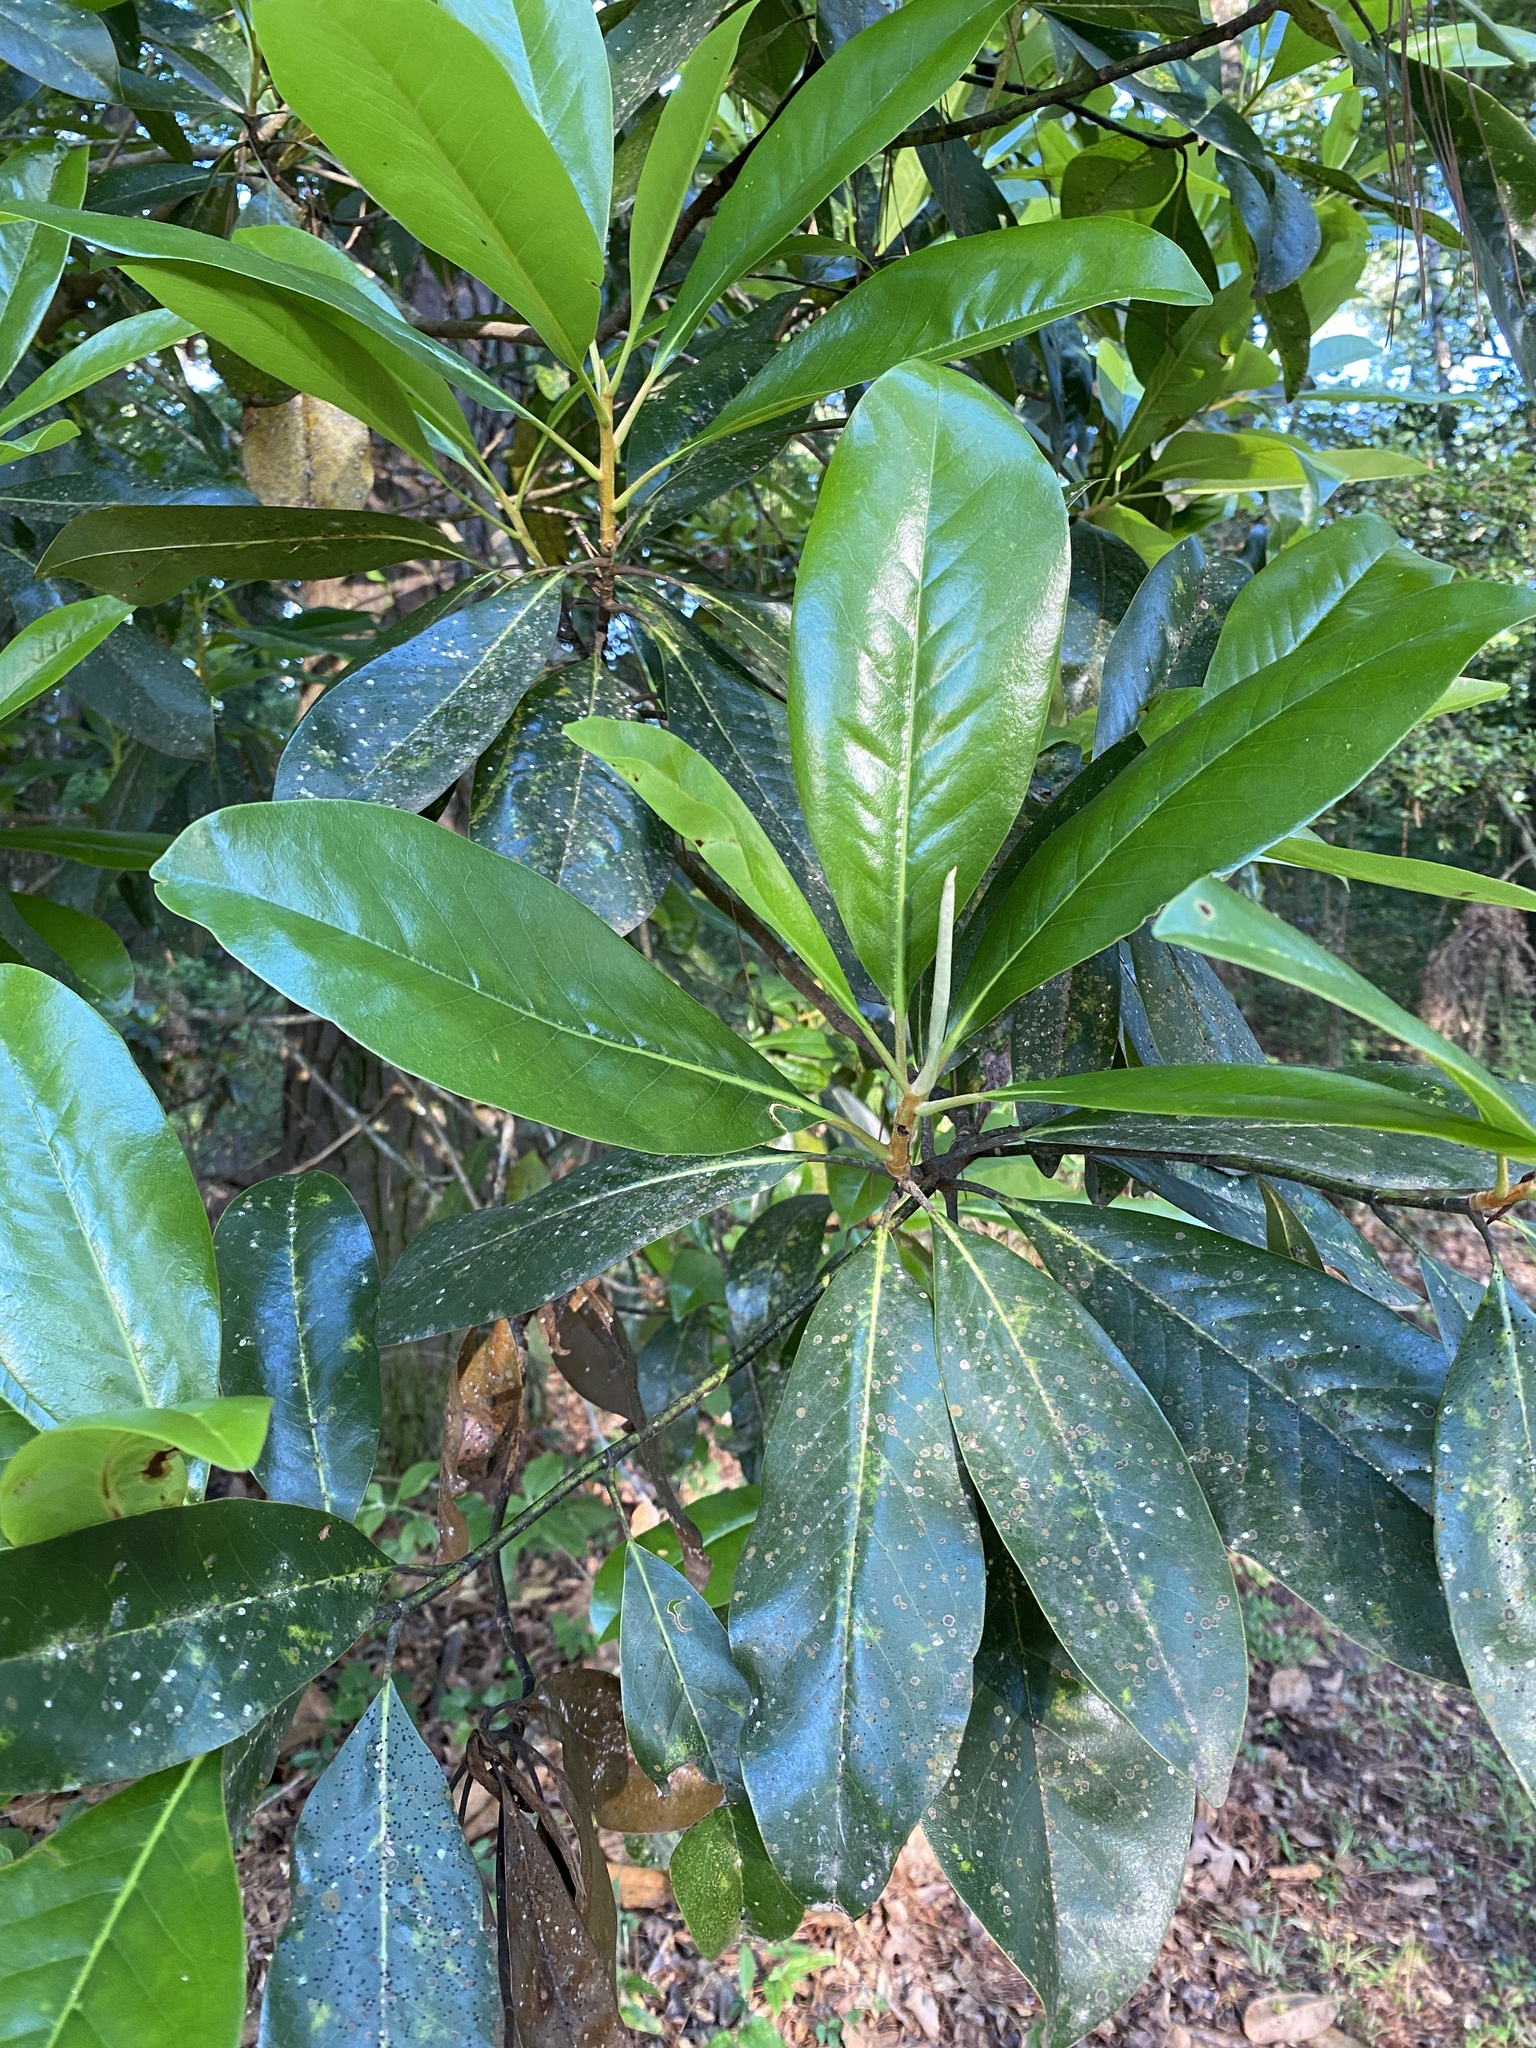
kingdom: Plantae
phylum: Tracheophyta
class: Magnoliopsida
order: Magnoliales
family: Magnoliaceae
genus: Magnolia
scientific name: Magnolia grandiflora
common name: Southern magnolia
